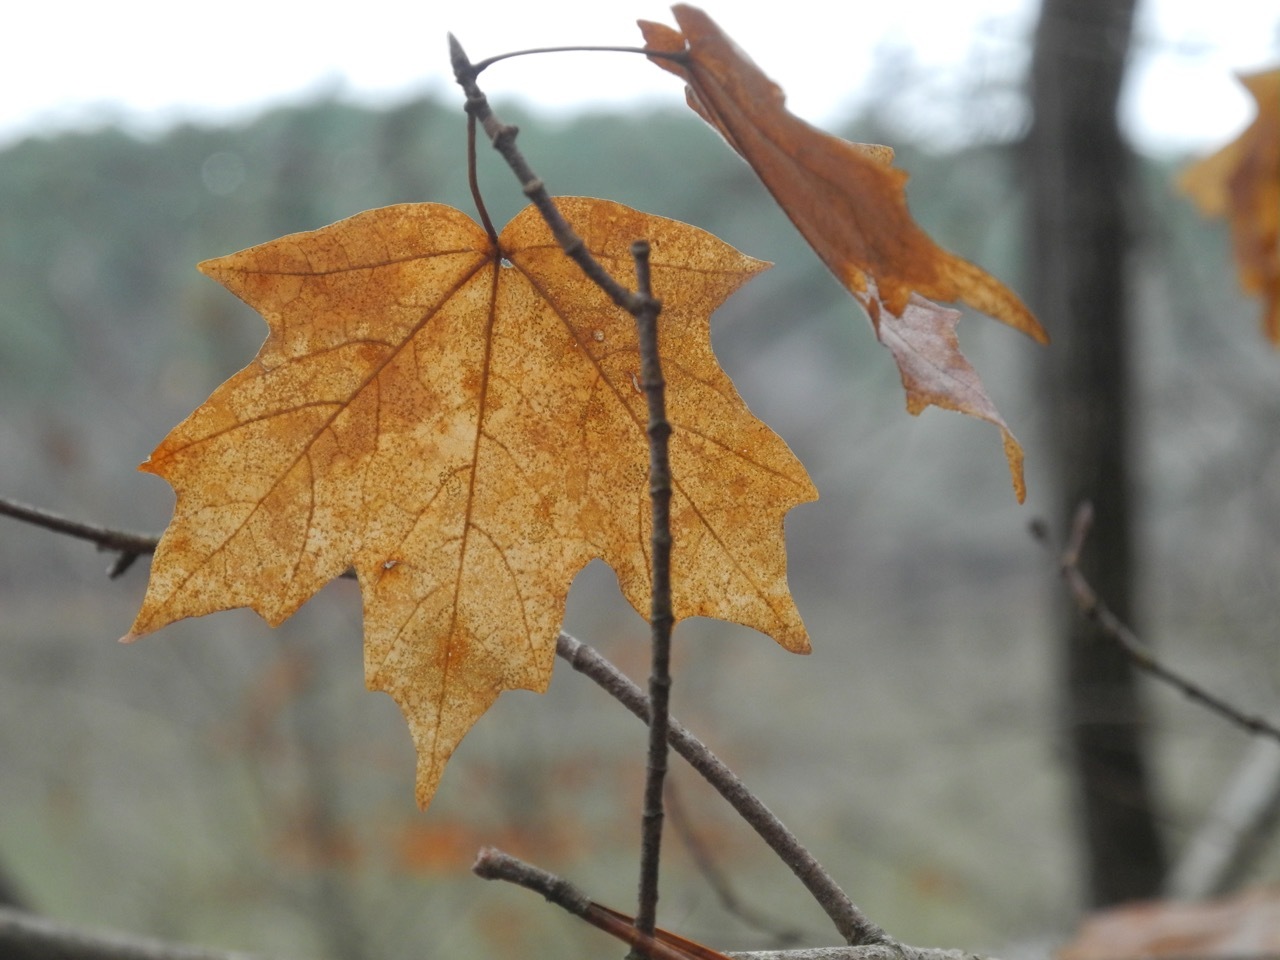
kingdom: Plantae
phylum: Tracheophyta
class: Magnoliopsida
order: Sapindales
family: Sapindaceae
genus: Acer
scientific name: Acer floridanum
